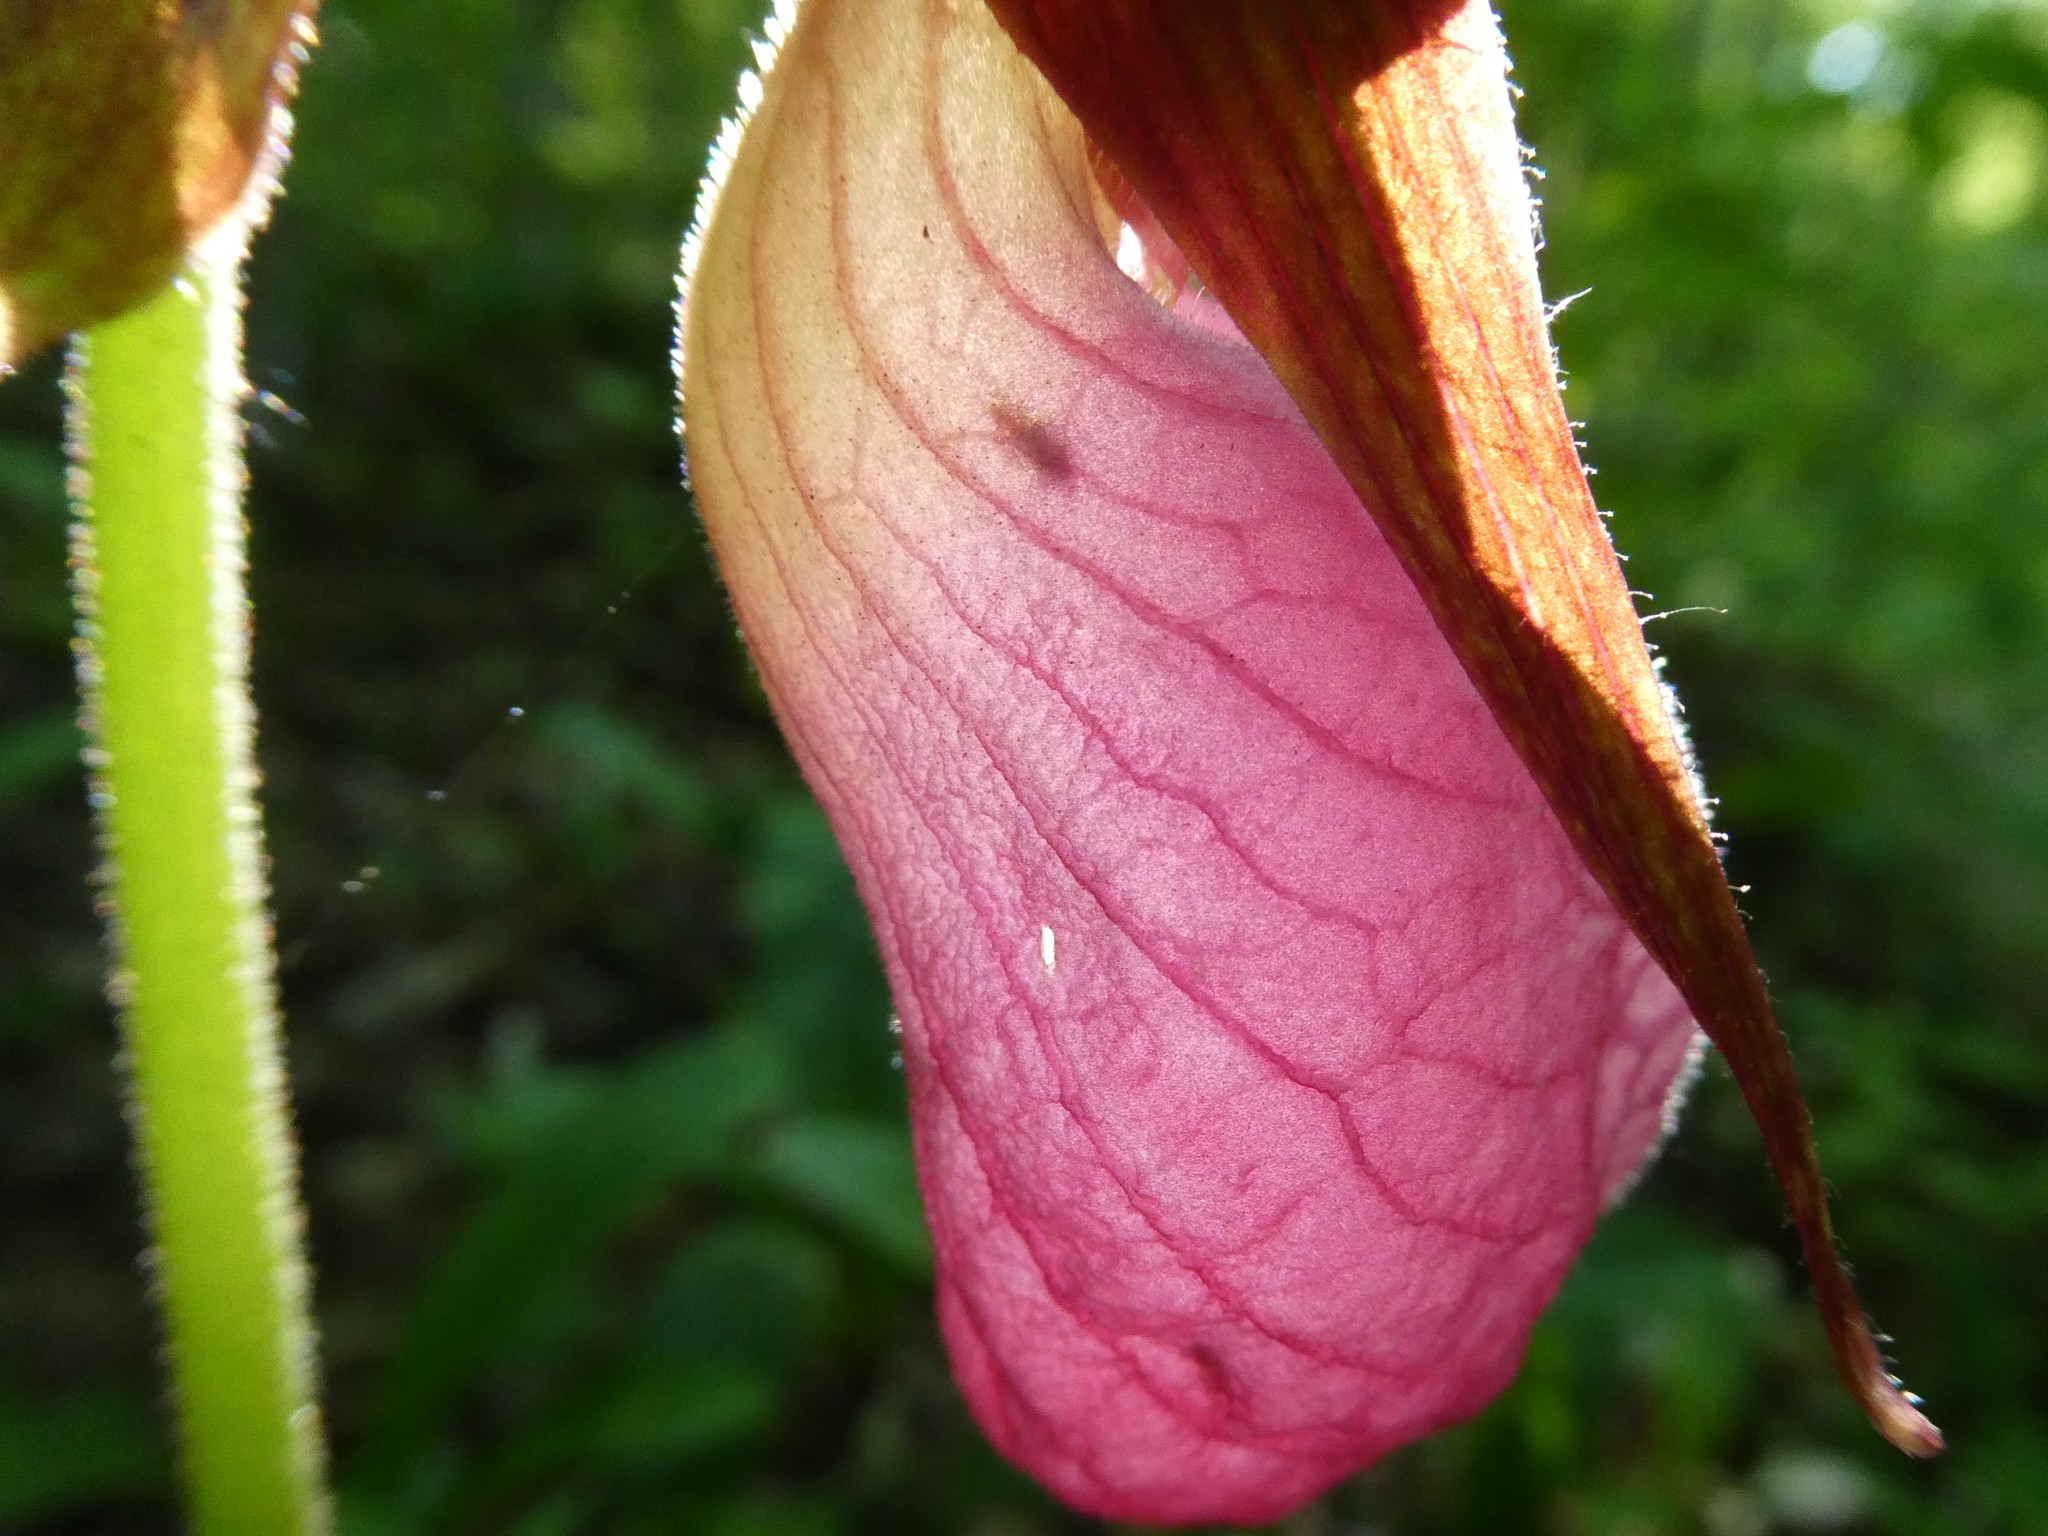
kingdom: Plantae
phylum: Tracheophyta
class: Liliopsida
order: Asparagales
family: Orchidaceae
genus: Cypripedium
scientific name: Cypripedium acaule
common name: Pink lady's-slipper
